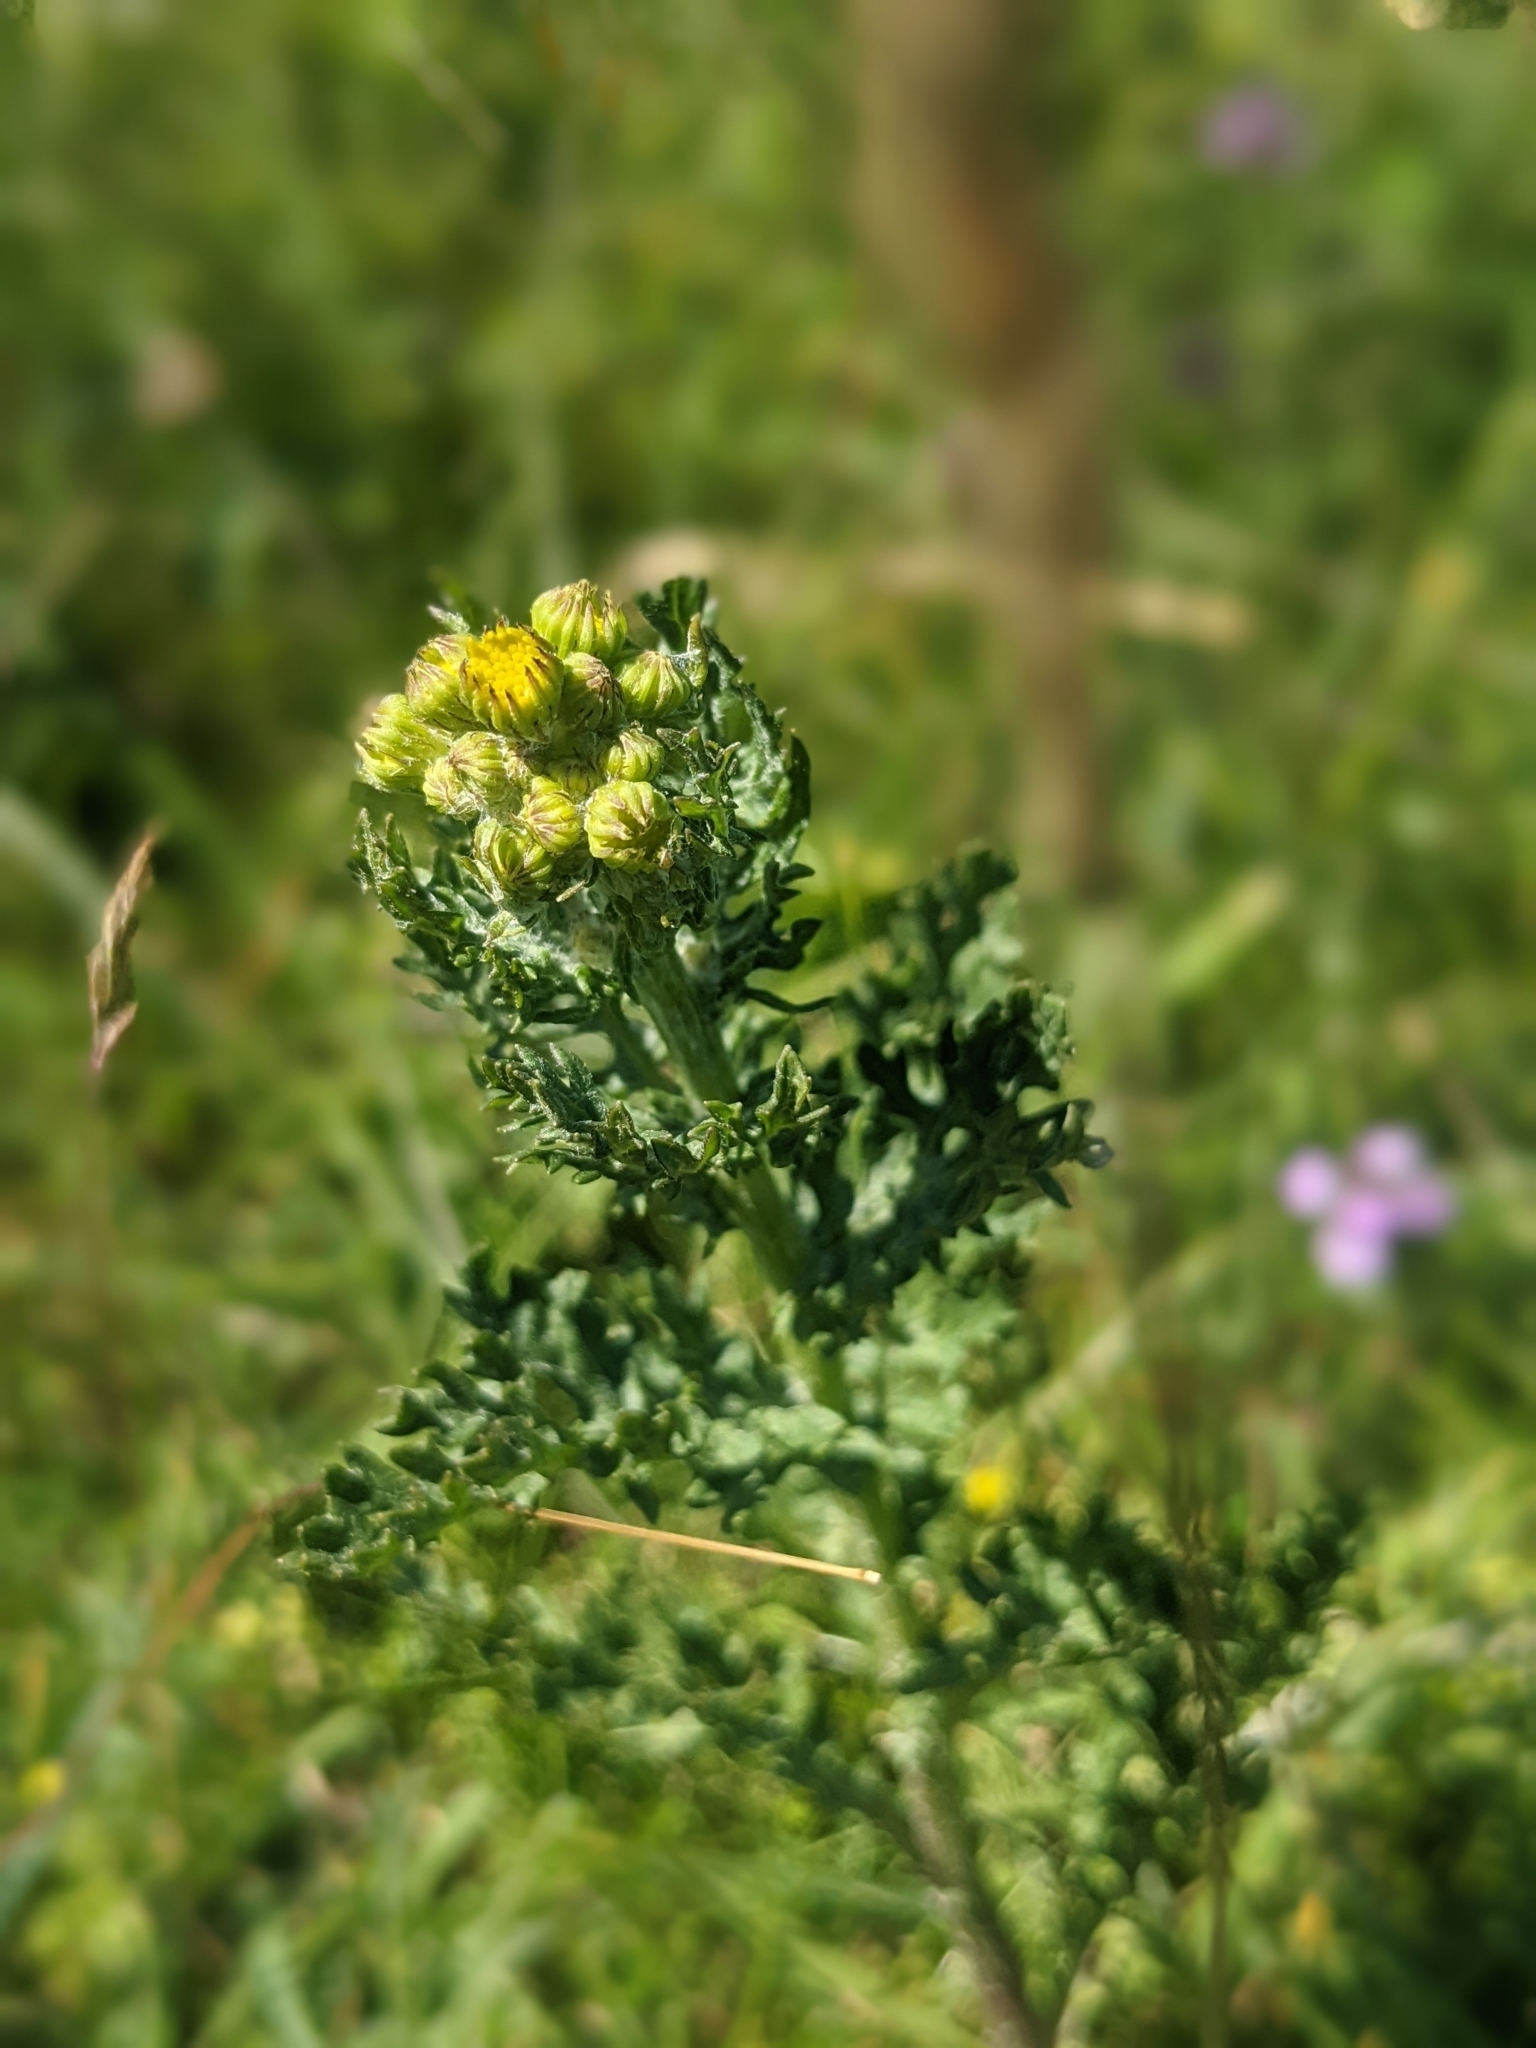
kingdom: Plantae
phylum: Tracheophyta
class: Magnoliopsida
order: Asterales
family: Asteraceae
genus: Jacobaea
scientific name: Jacobaea vulgaris
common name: Stinking willie
